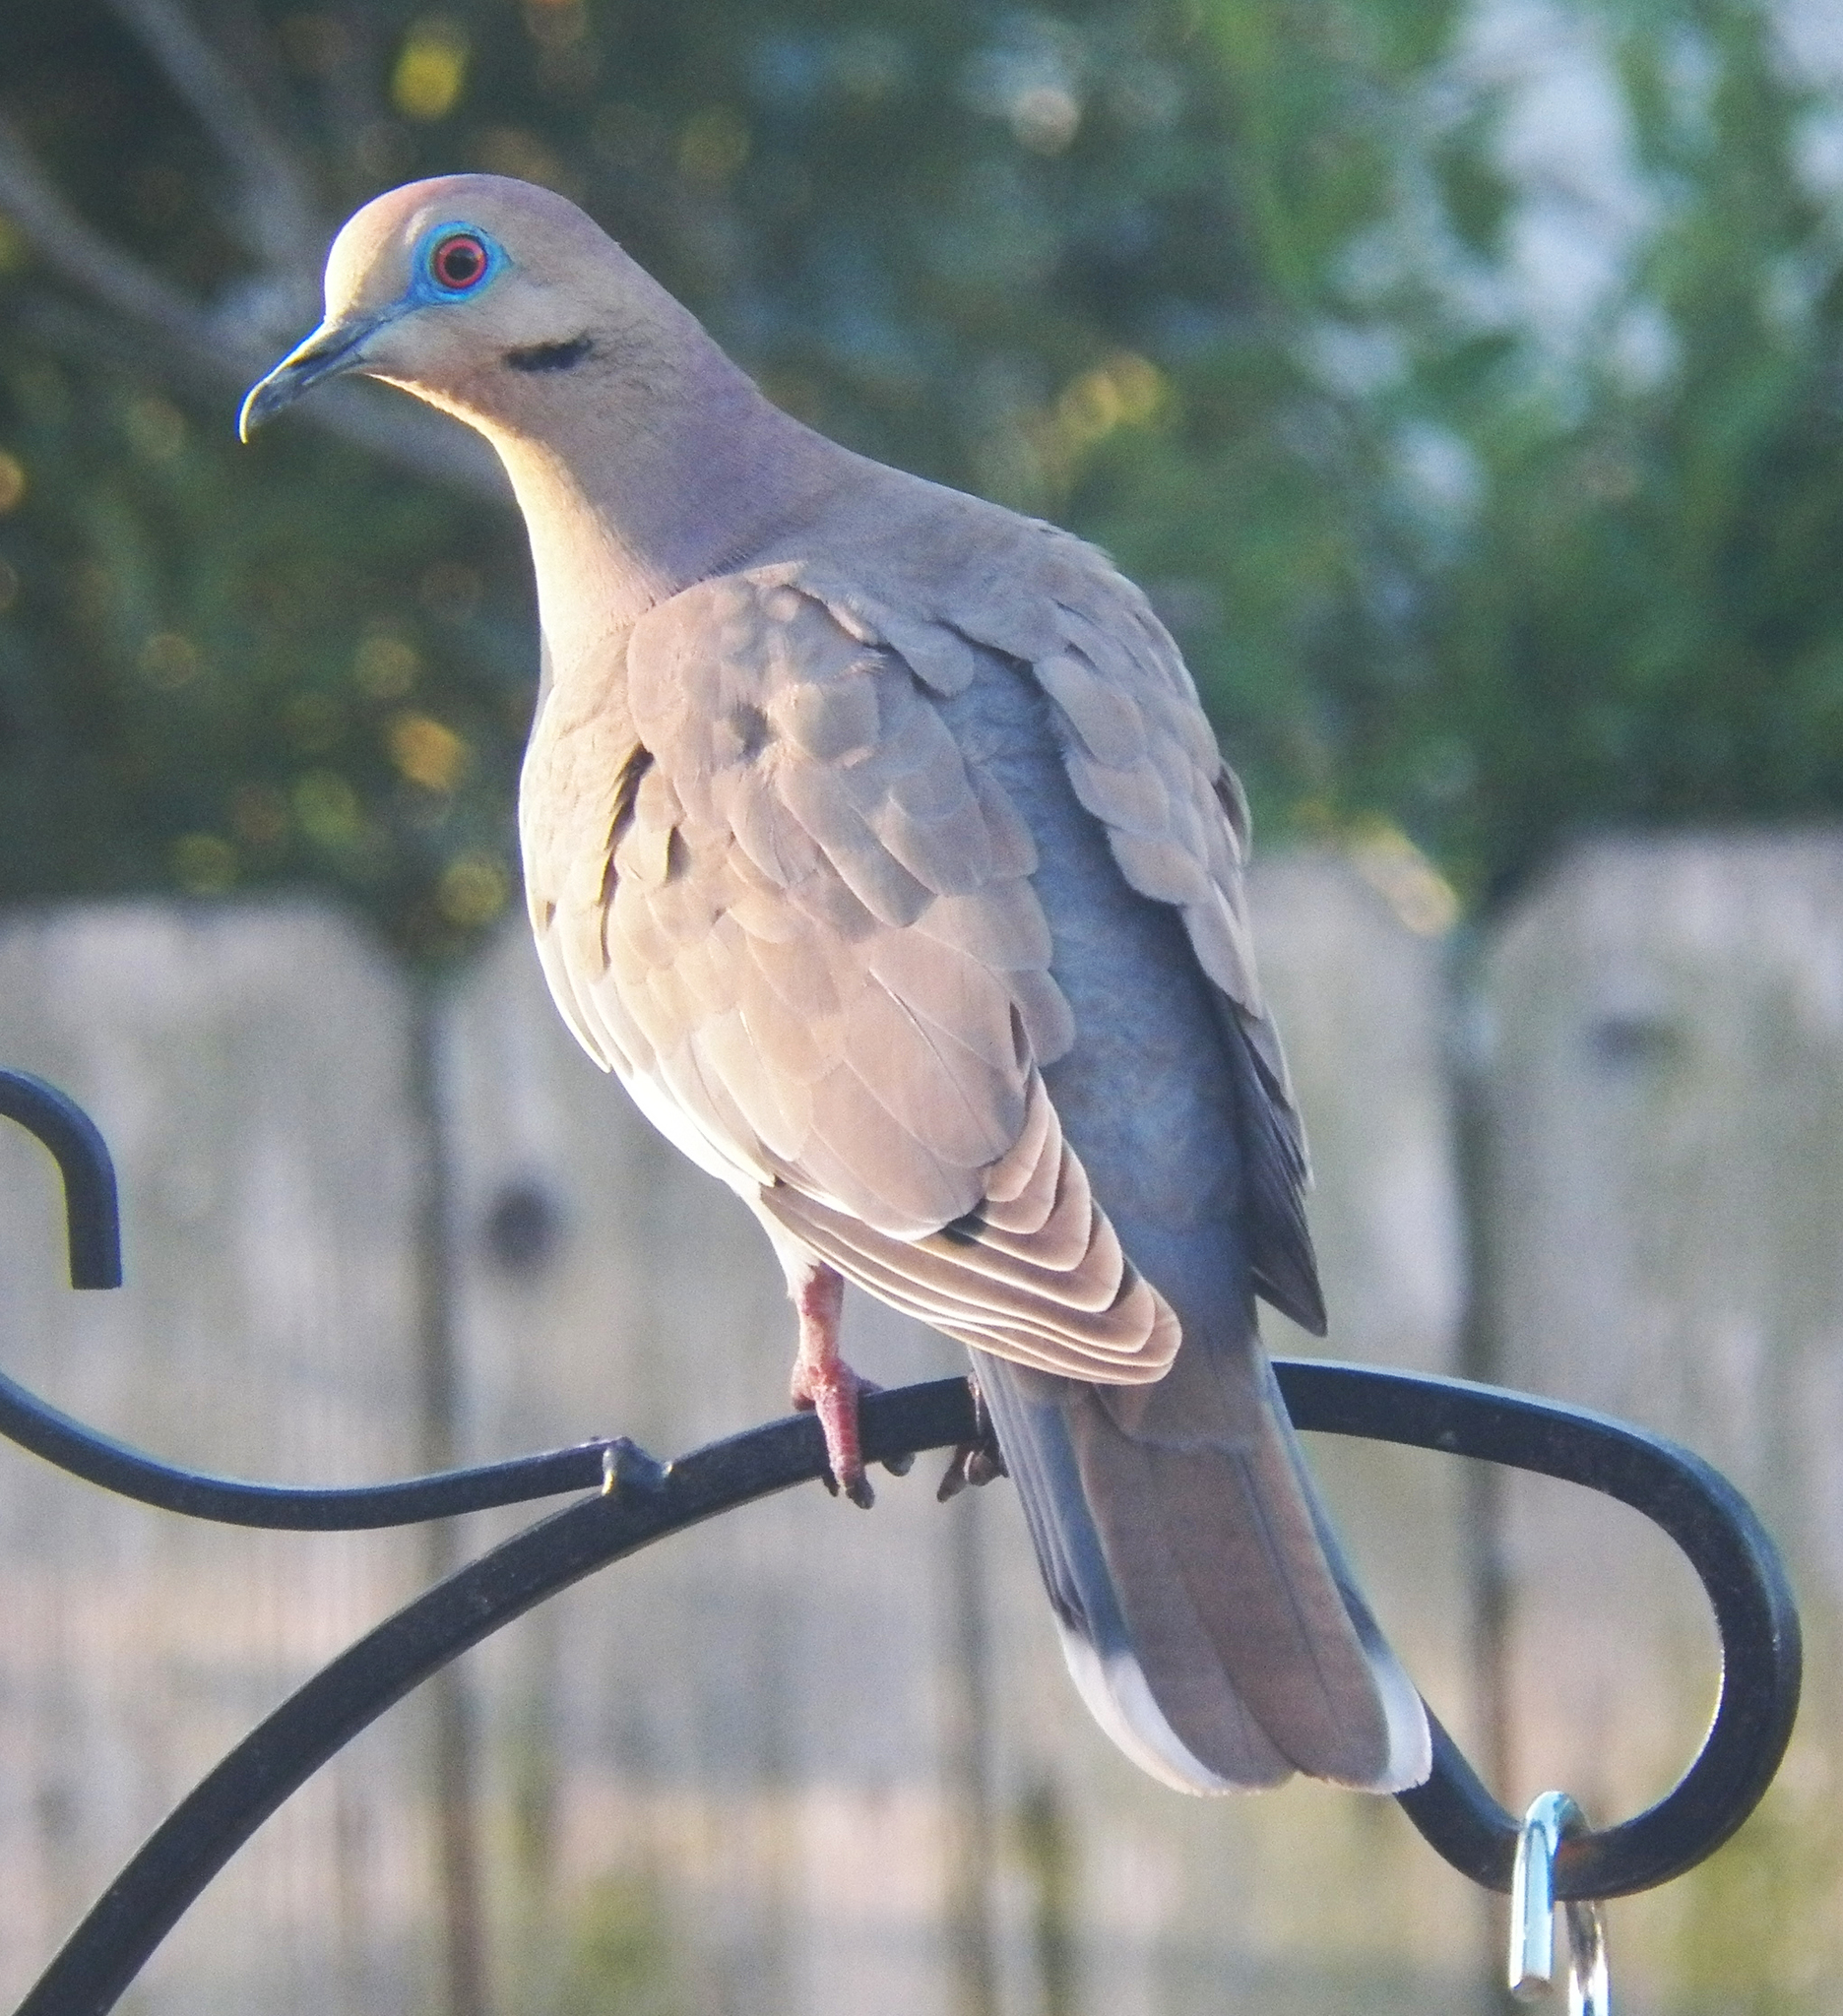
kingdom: Animalia
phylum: Chordata
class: Aves
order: Columbiformes
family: Columbidae
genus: Zenaida
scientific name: Zenaida asiatica
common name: White-winged dove
